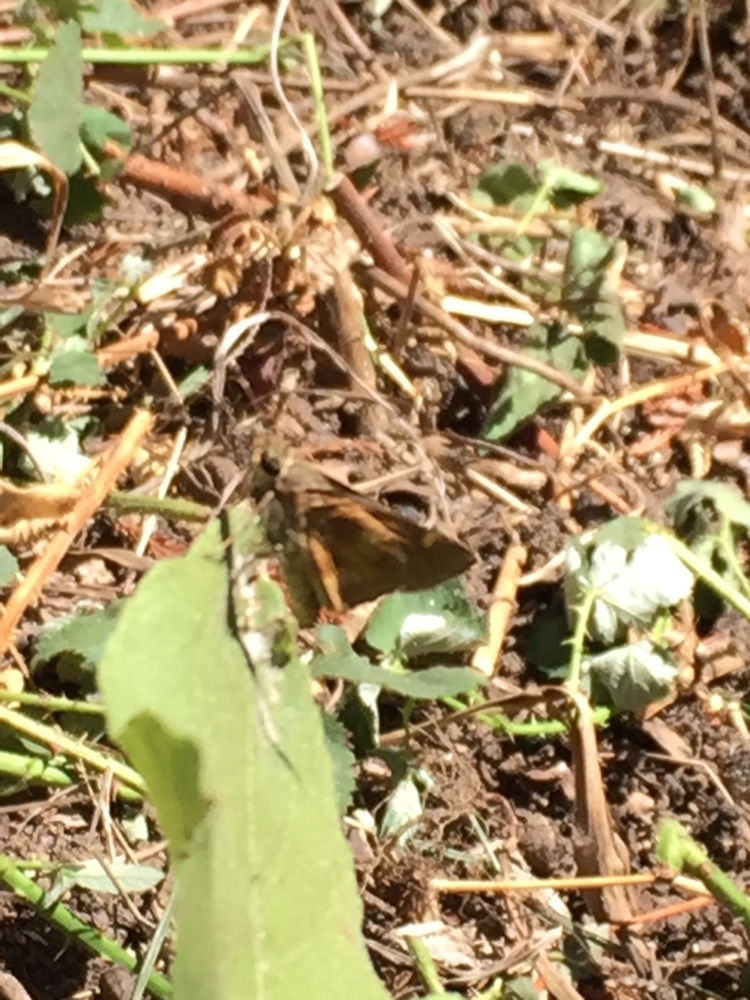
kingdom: Animalia
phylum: Arthropoda
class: Insecta
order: Lepidoptera
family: Hesperiidae
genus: Lon
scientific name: Lon melane
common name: Umber skipper
